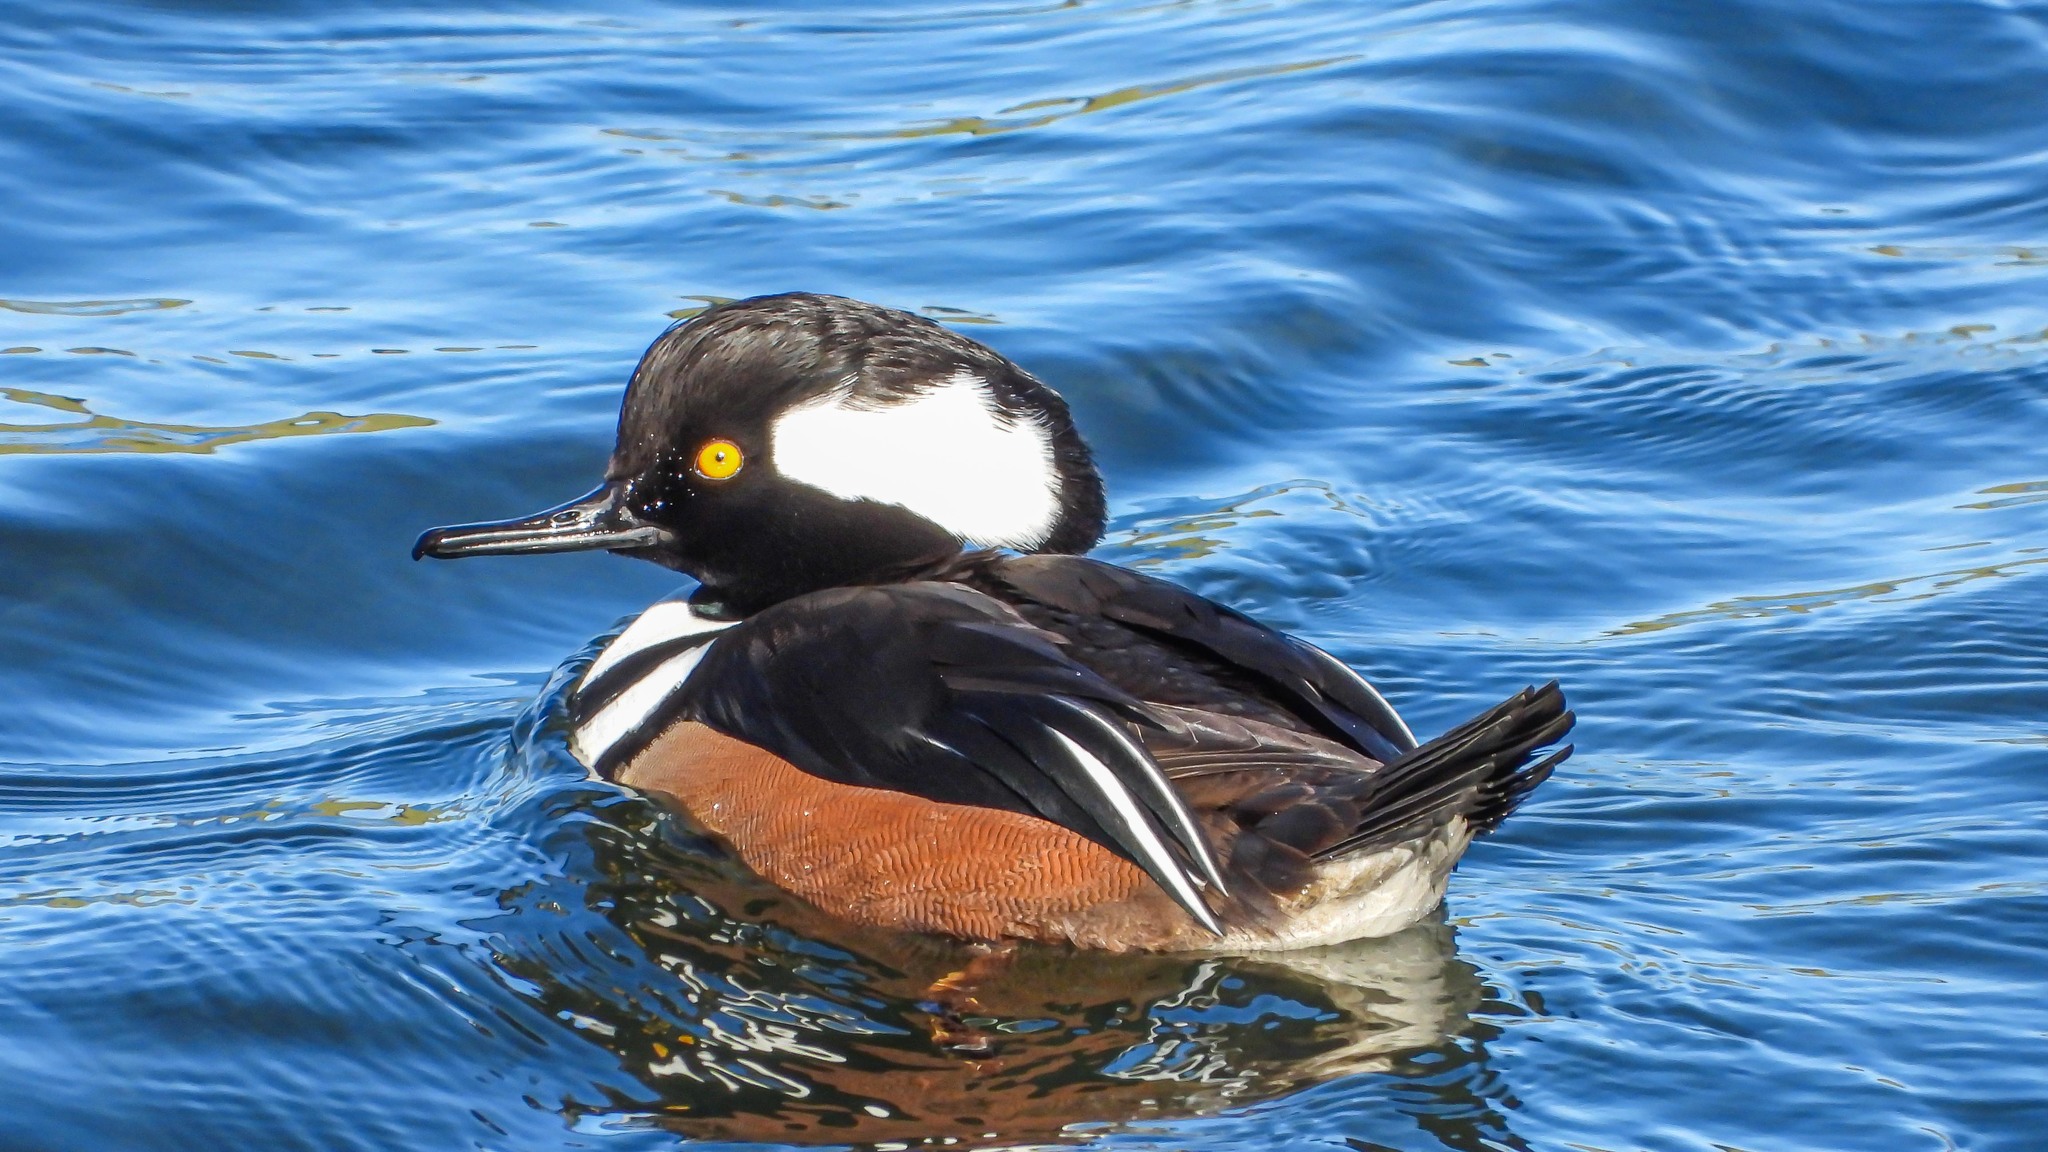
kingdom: Animalia
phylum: Chordata
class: Aves
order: Anseriformes
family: Anatidae
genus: Lophodytes
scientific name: Lophodytes cucullatus
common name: Hooded merganser
